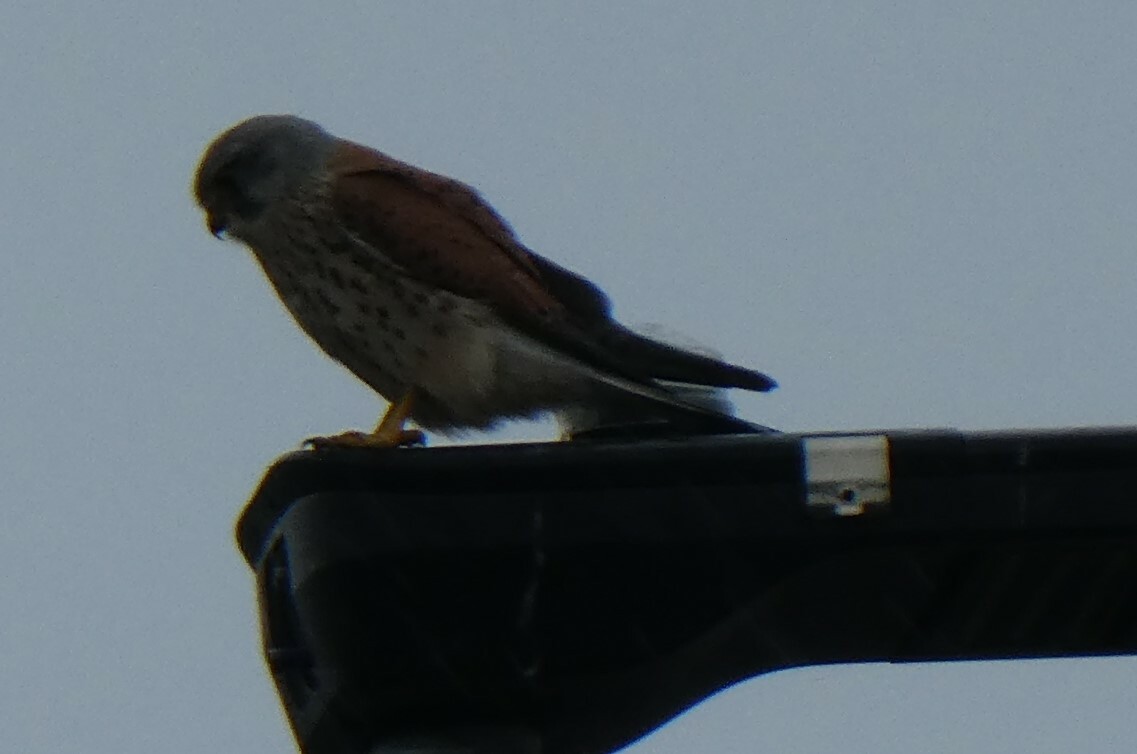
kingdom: Animalia
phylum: Chordata
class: Aves
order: Falconiformes
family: Falconidae
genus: Falco
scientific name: Falco tinnunculus
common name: Common kestrel
